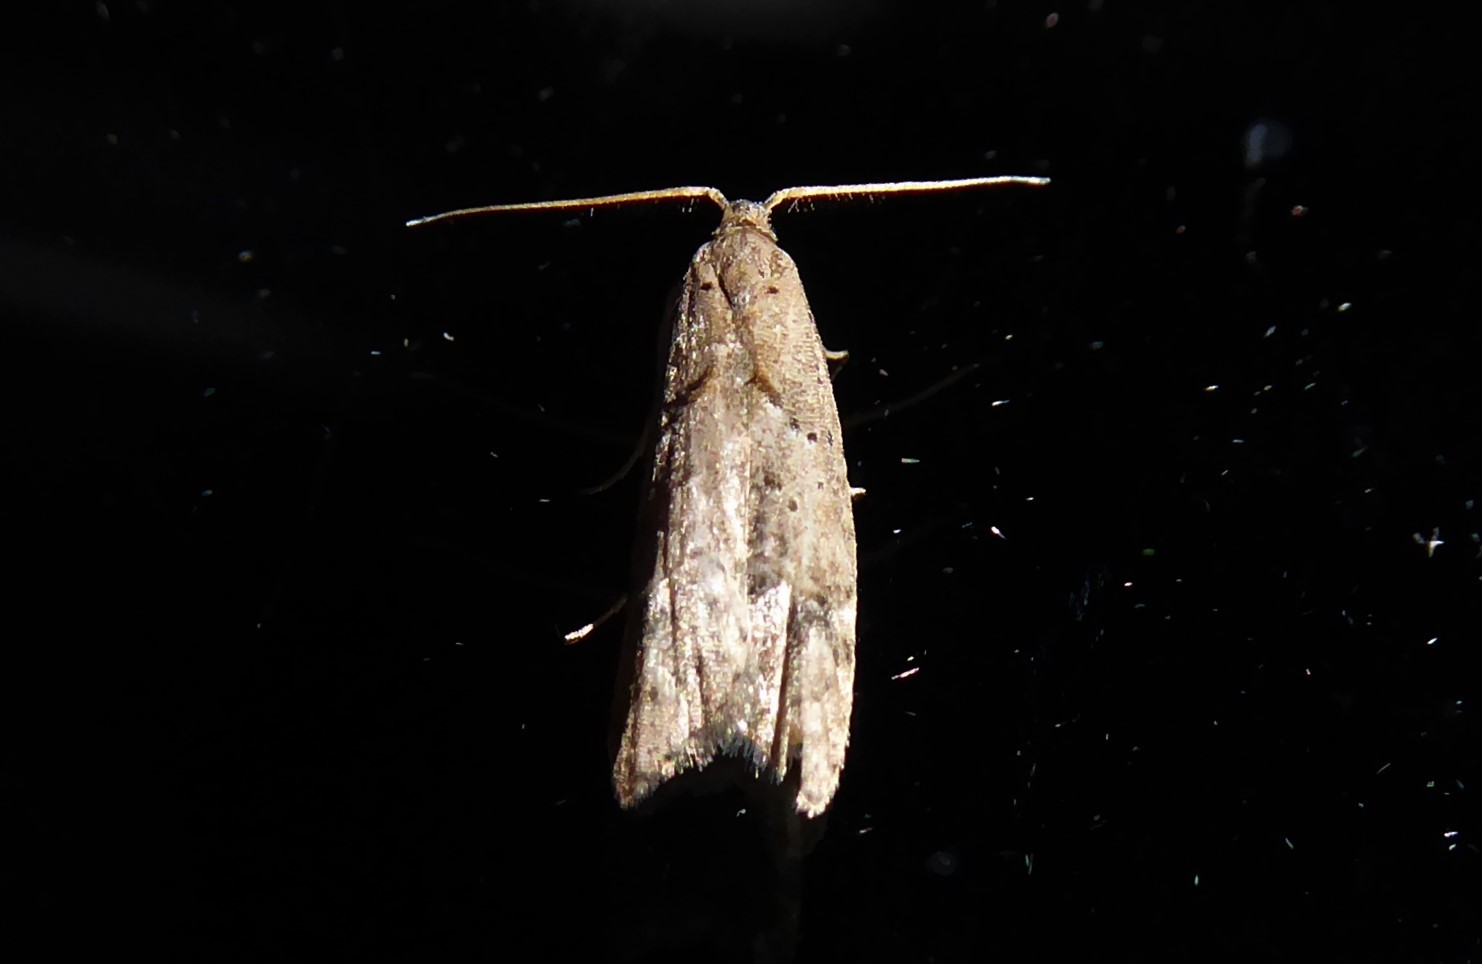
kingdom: Animalia
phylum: Arthropoda
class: Insecta
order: Lepidoptera
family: Carposinidae
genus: Carposina
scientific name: Carposina rubophaga
